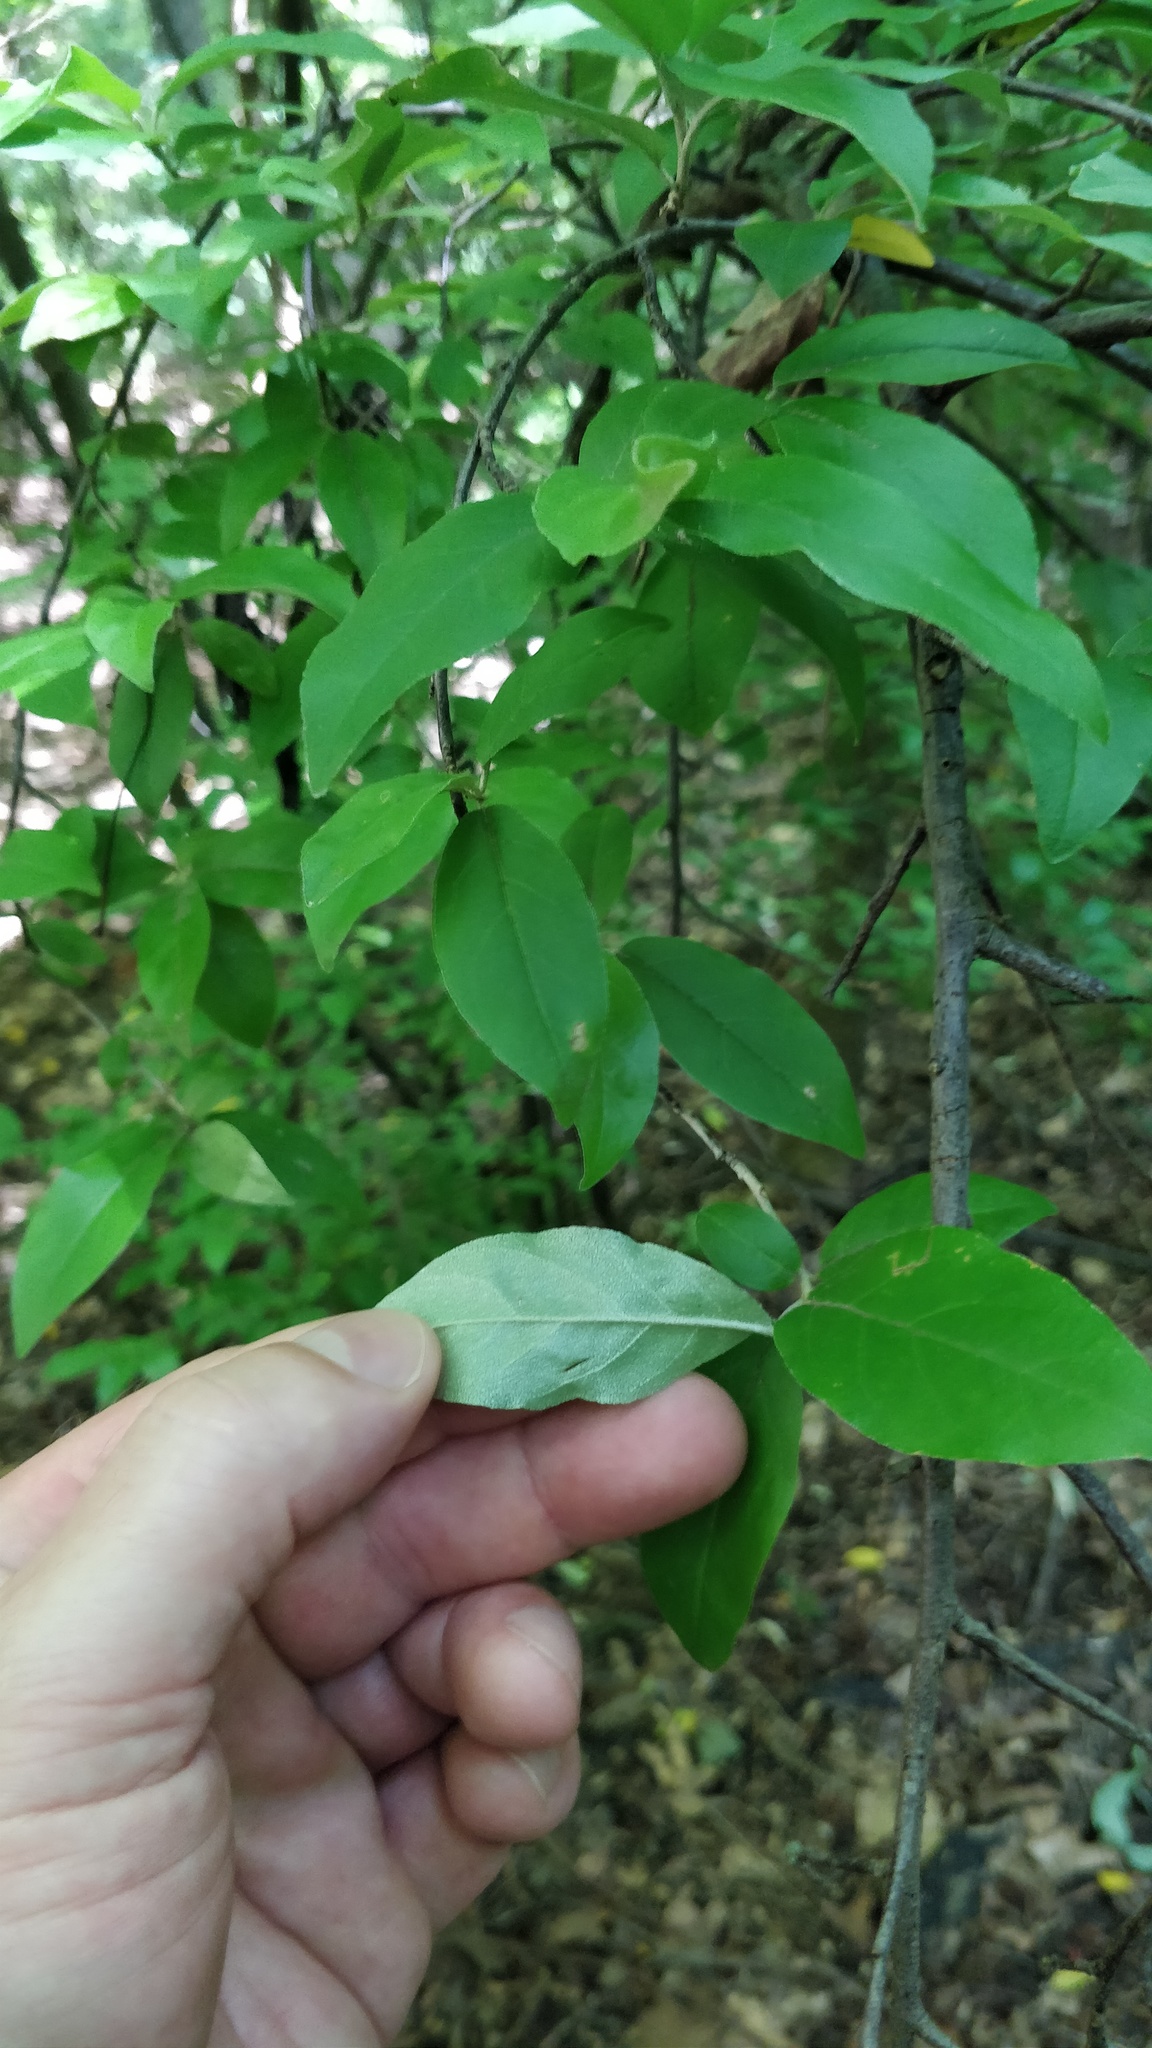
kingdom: Plantae
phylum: Tracheophyta
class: Magnoliopsida
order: Rosales
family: Elaeagnaceae
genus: Elaeagnus
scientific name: Elaeagnus umbellata
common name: Autumn olive
